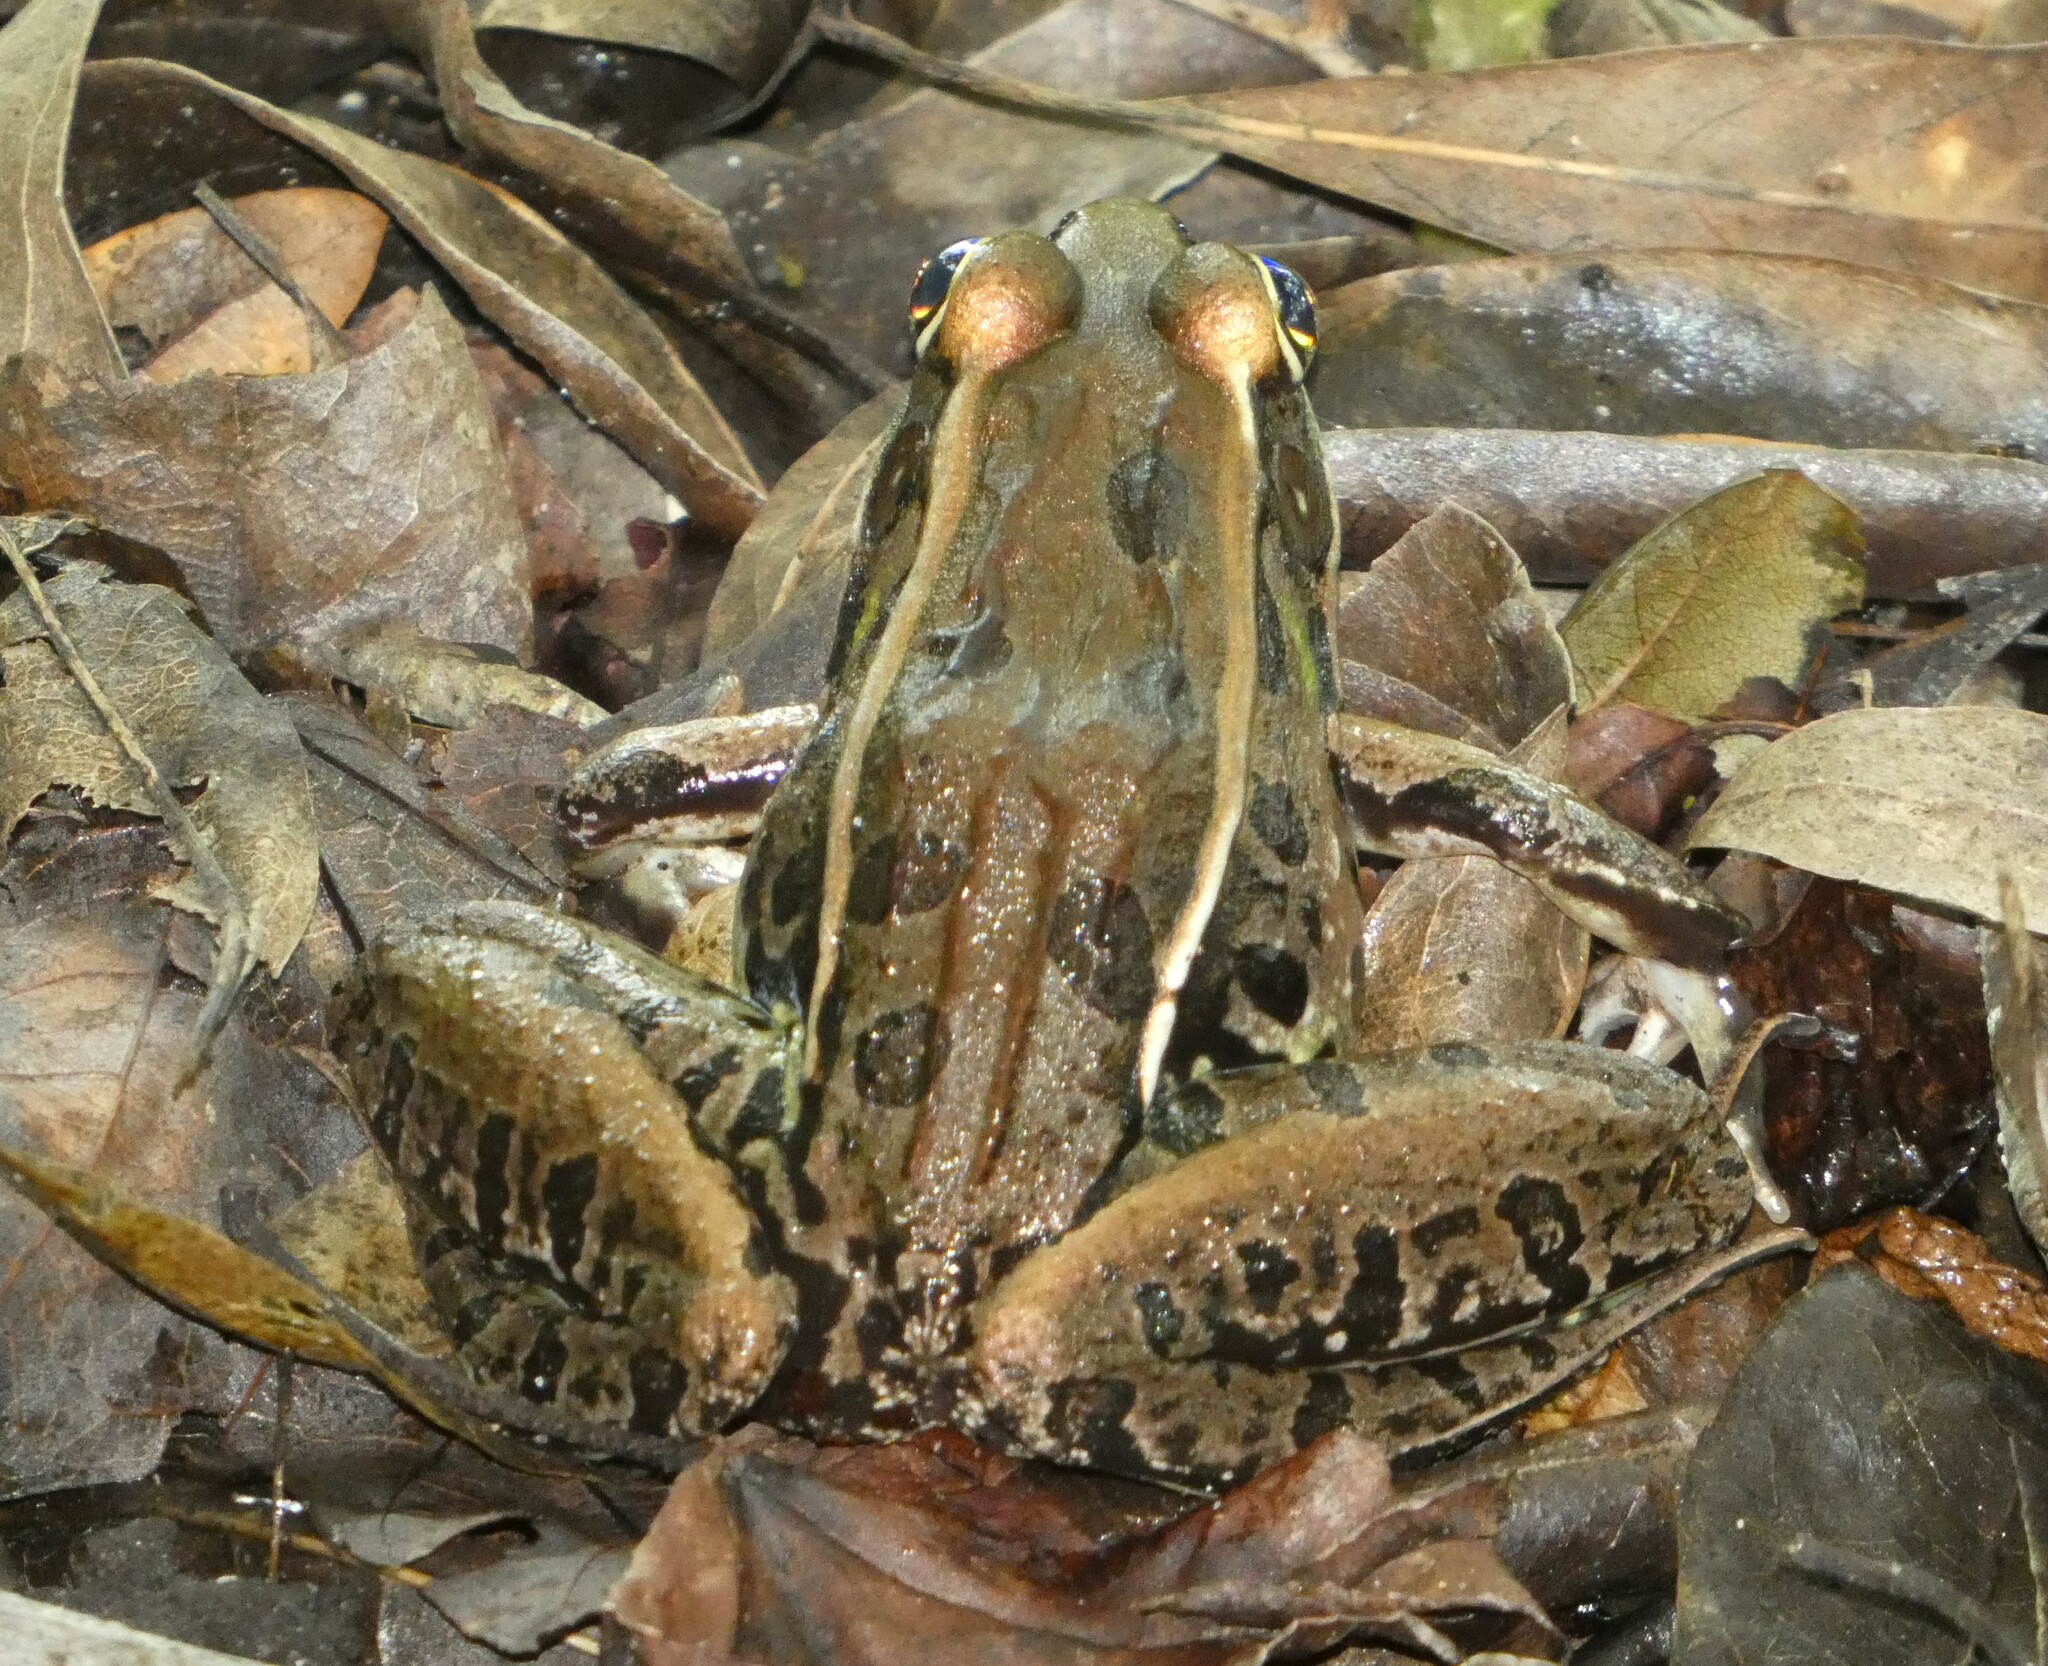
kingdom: Animalia
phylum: Chordata
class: Amphibia
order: Anura
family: Ranidae
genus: Lithobates
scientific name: Lithobates sphenocephalus
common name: Southern leopard frog
